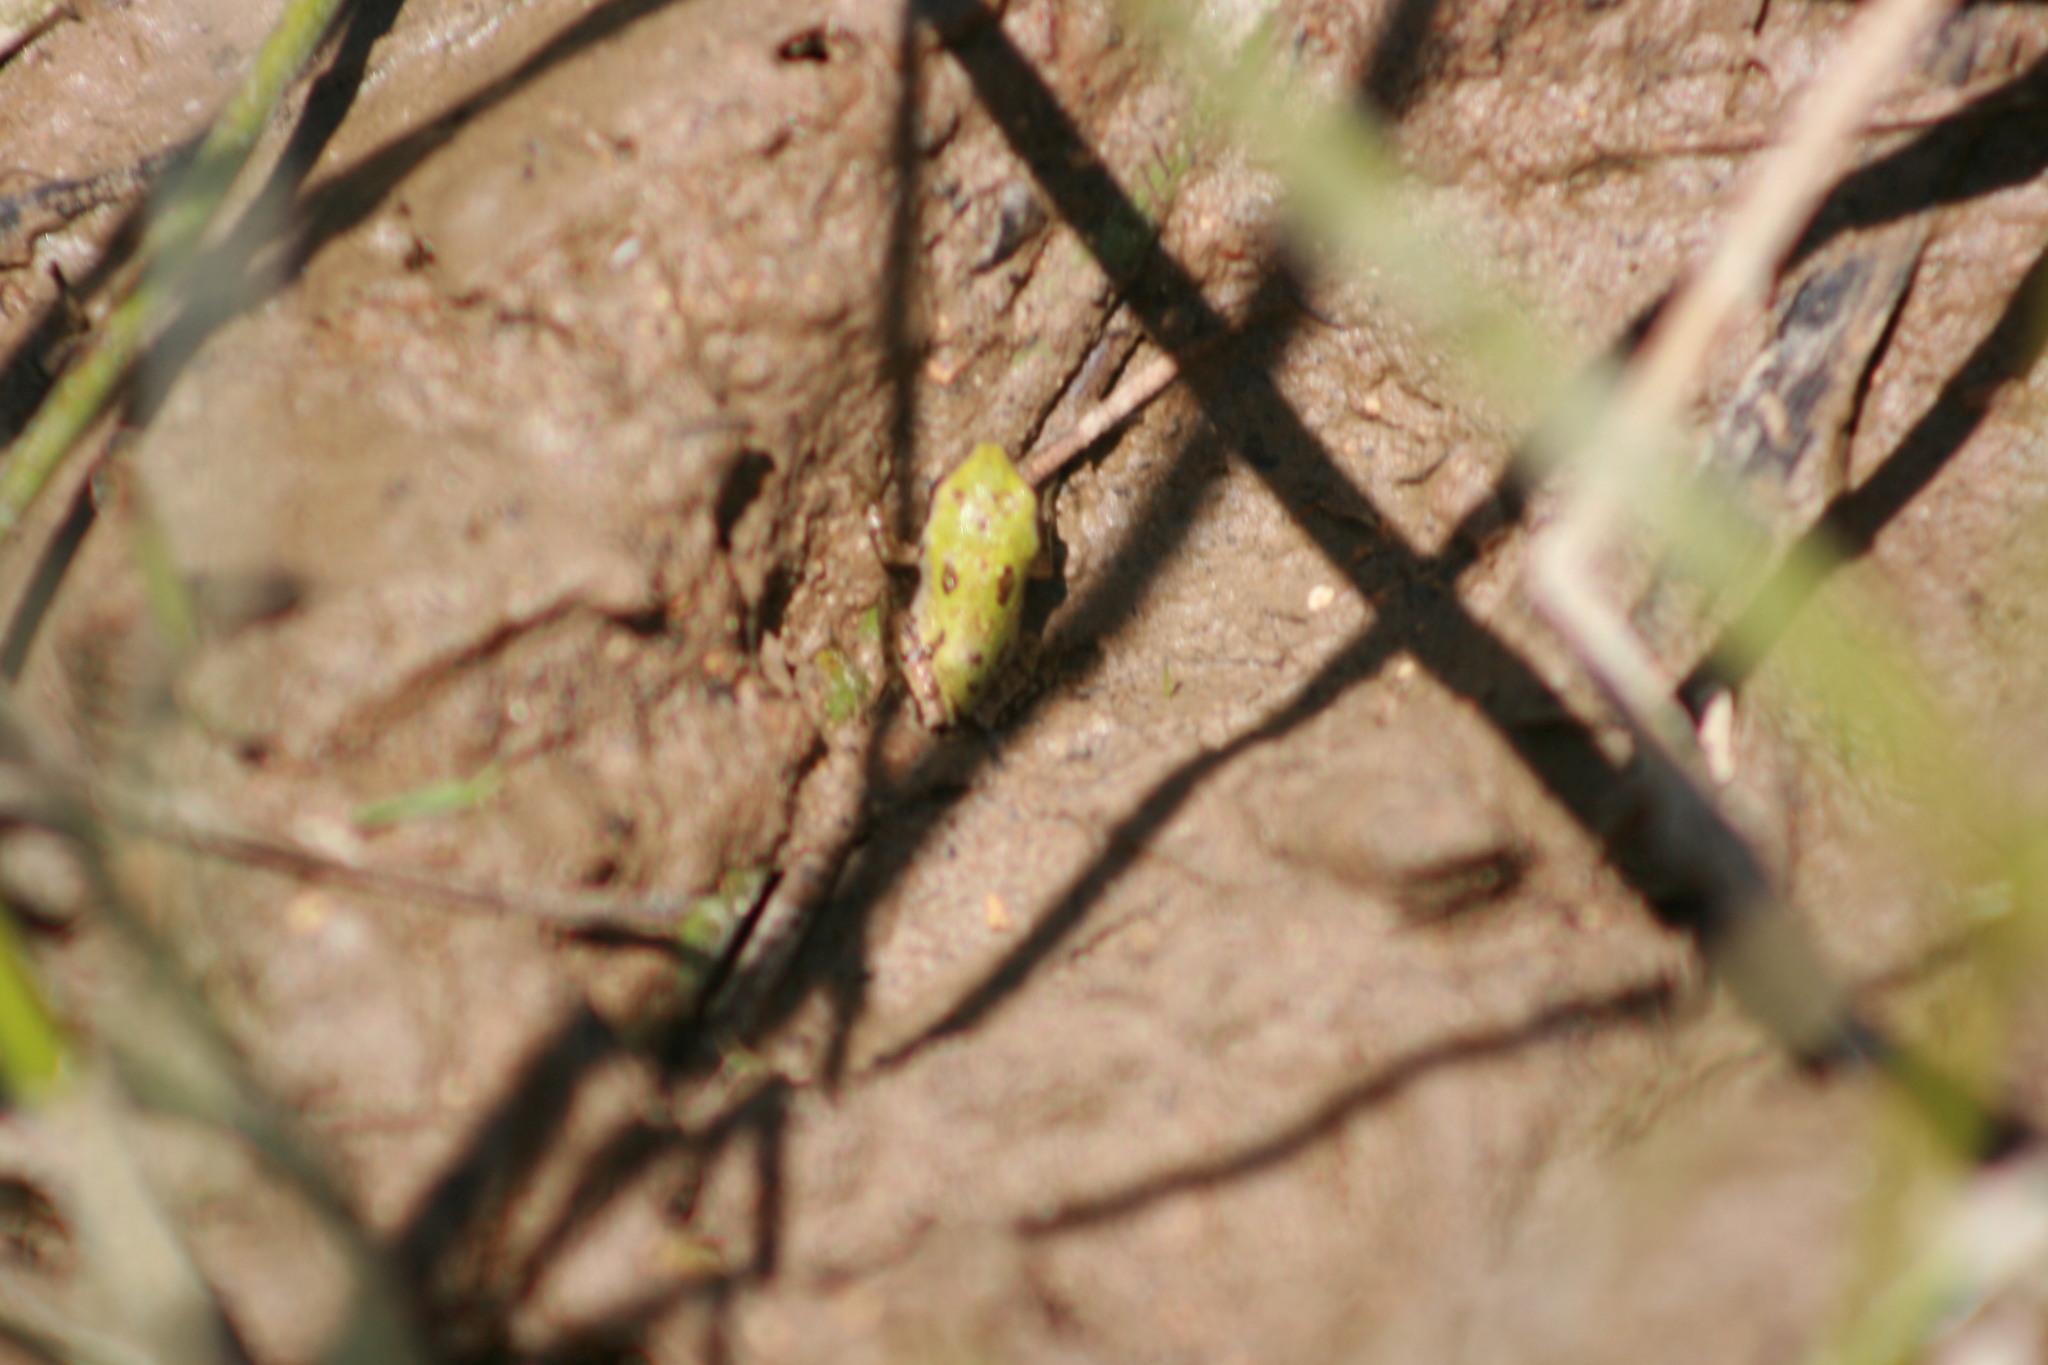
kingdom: Animalia
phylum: Chordata
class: Amphibia
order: Anura
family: Hylidae
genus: Pseudacris
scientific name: Pseudacris regilla
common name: Pacific chorus frog
